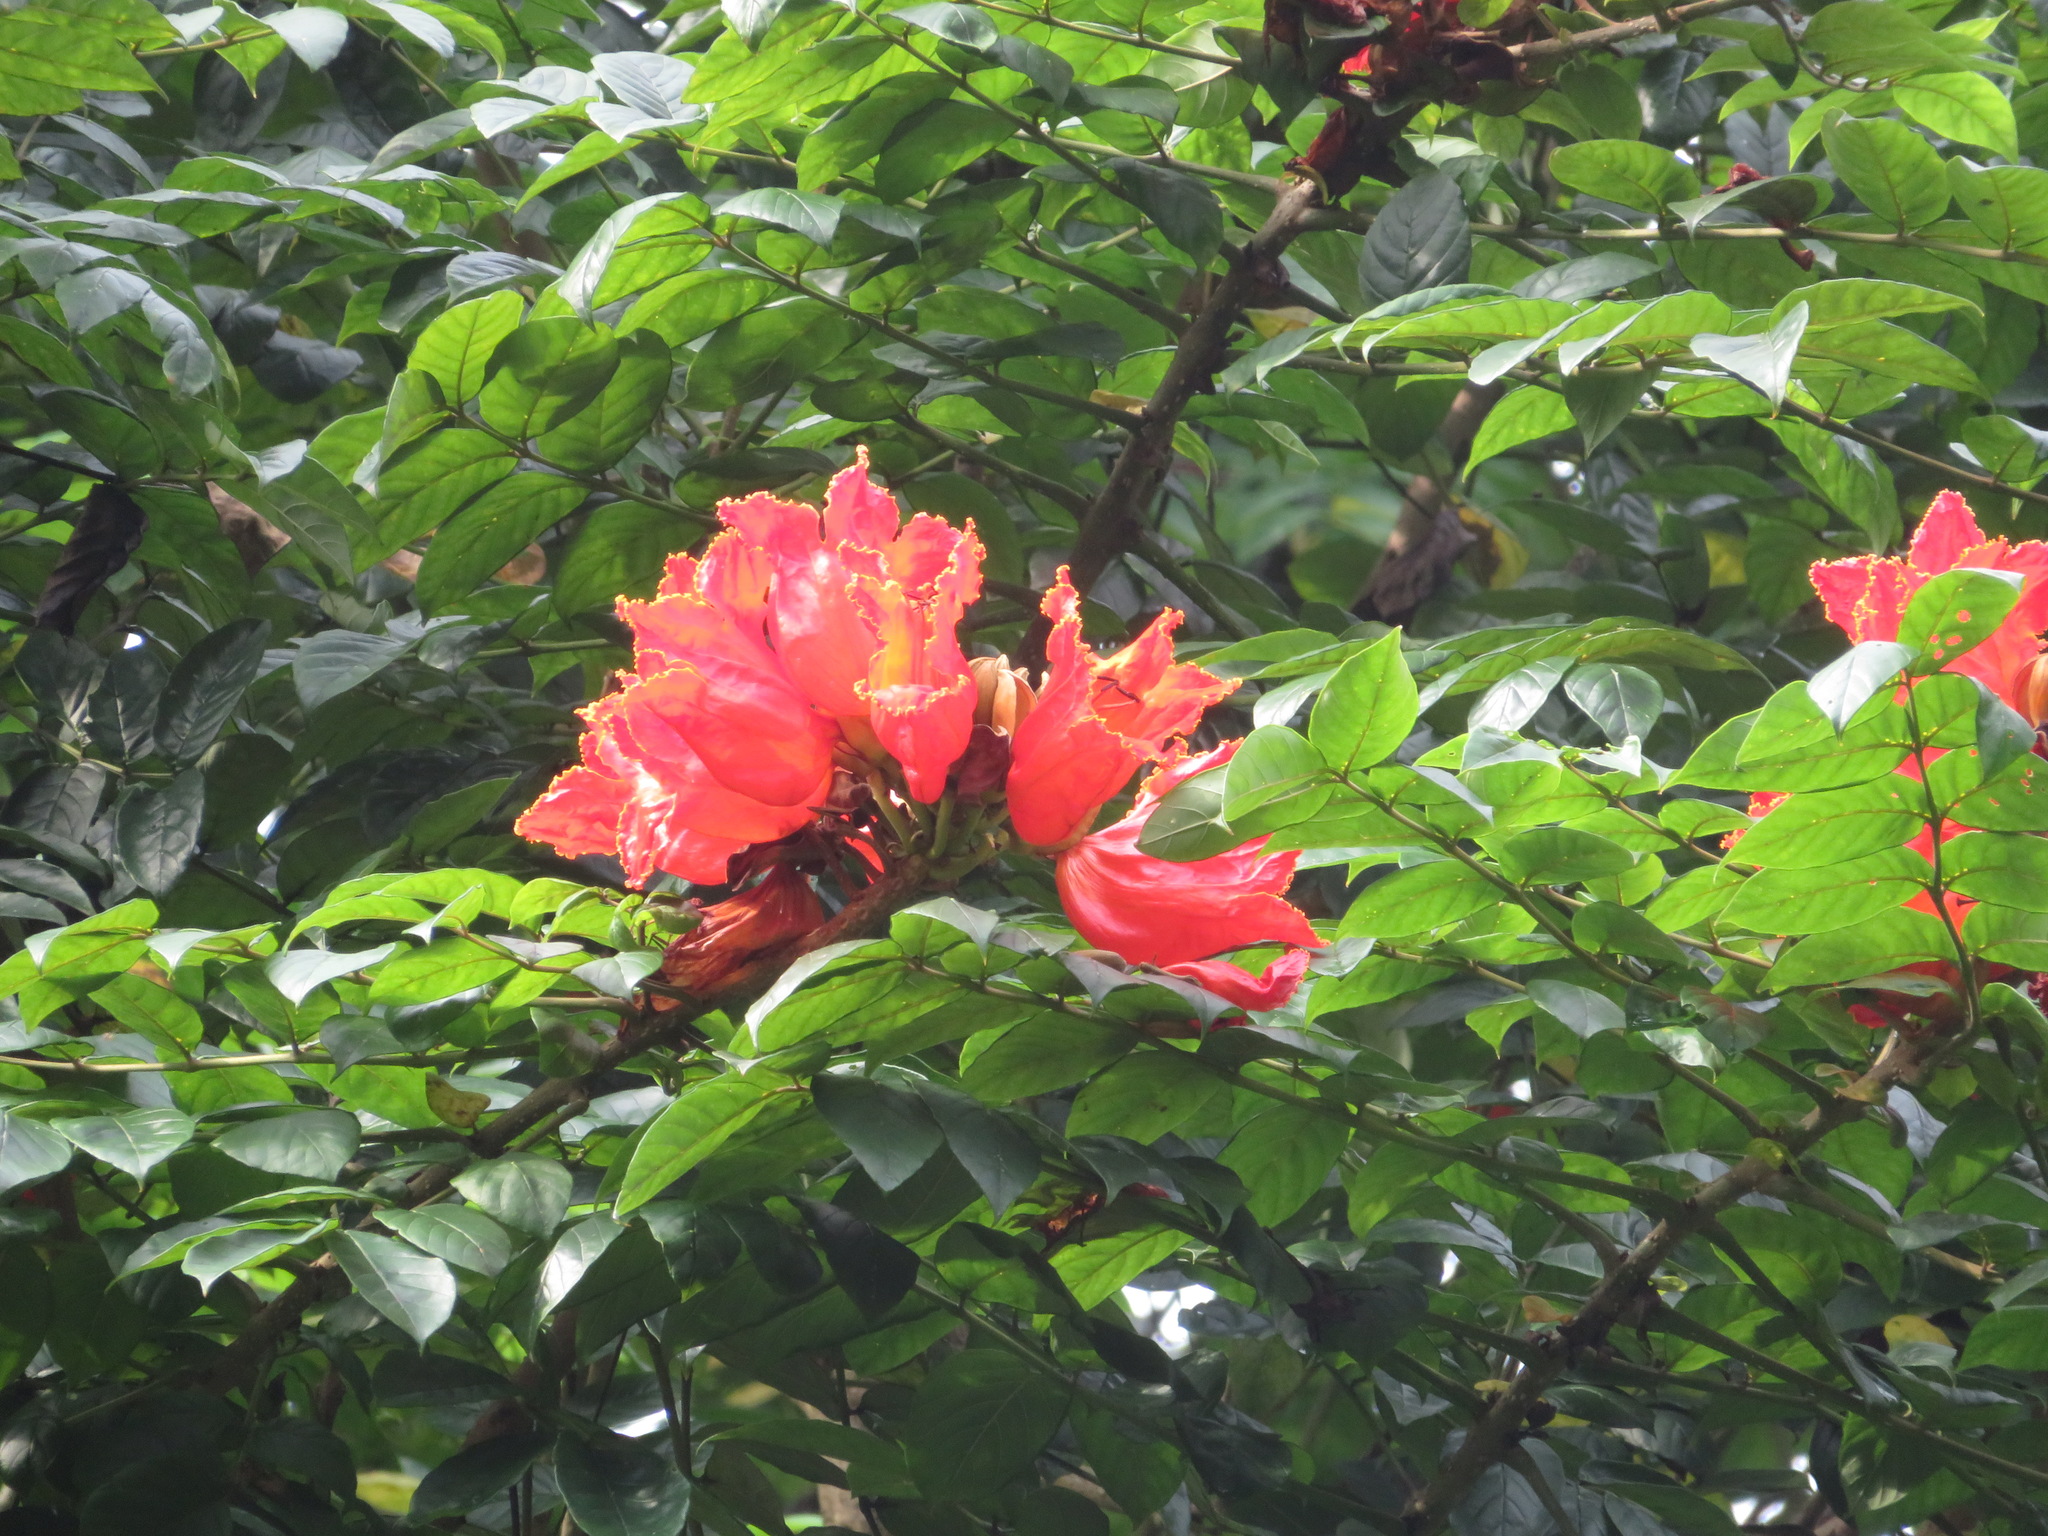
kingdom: Plantae
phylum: Tracheophyta
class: Magnoliopsida
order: Lamiales
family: Bignoniaceae
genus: Spathodea
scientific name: Spathodea campanulata
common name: African tuliptree
